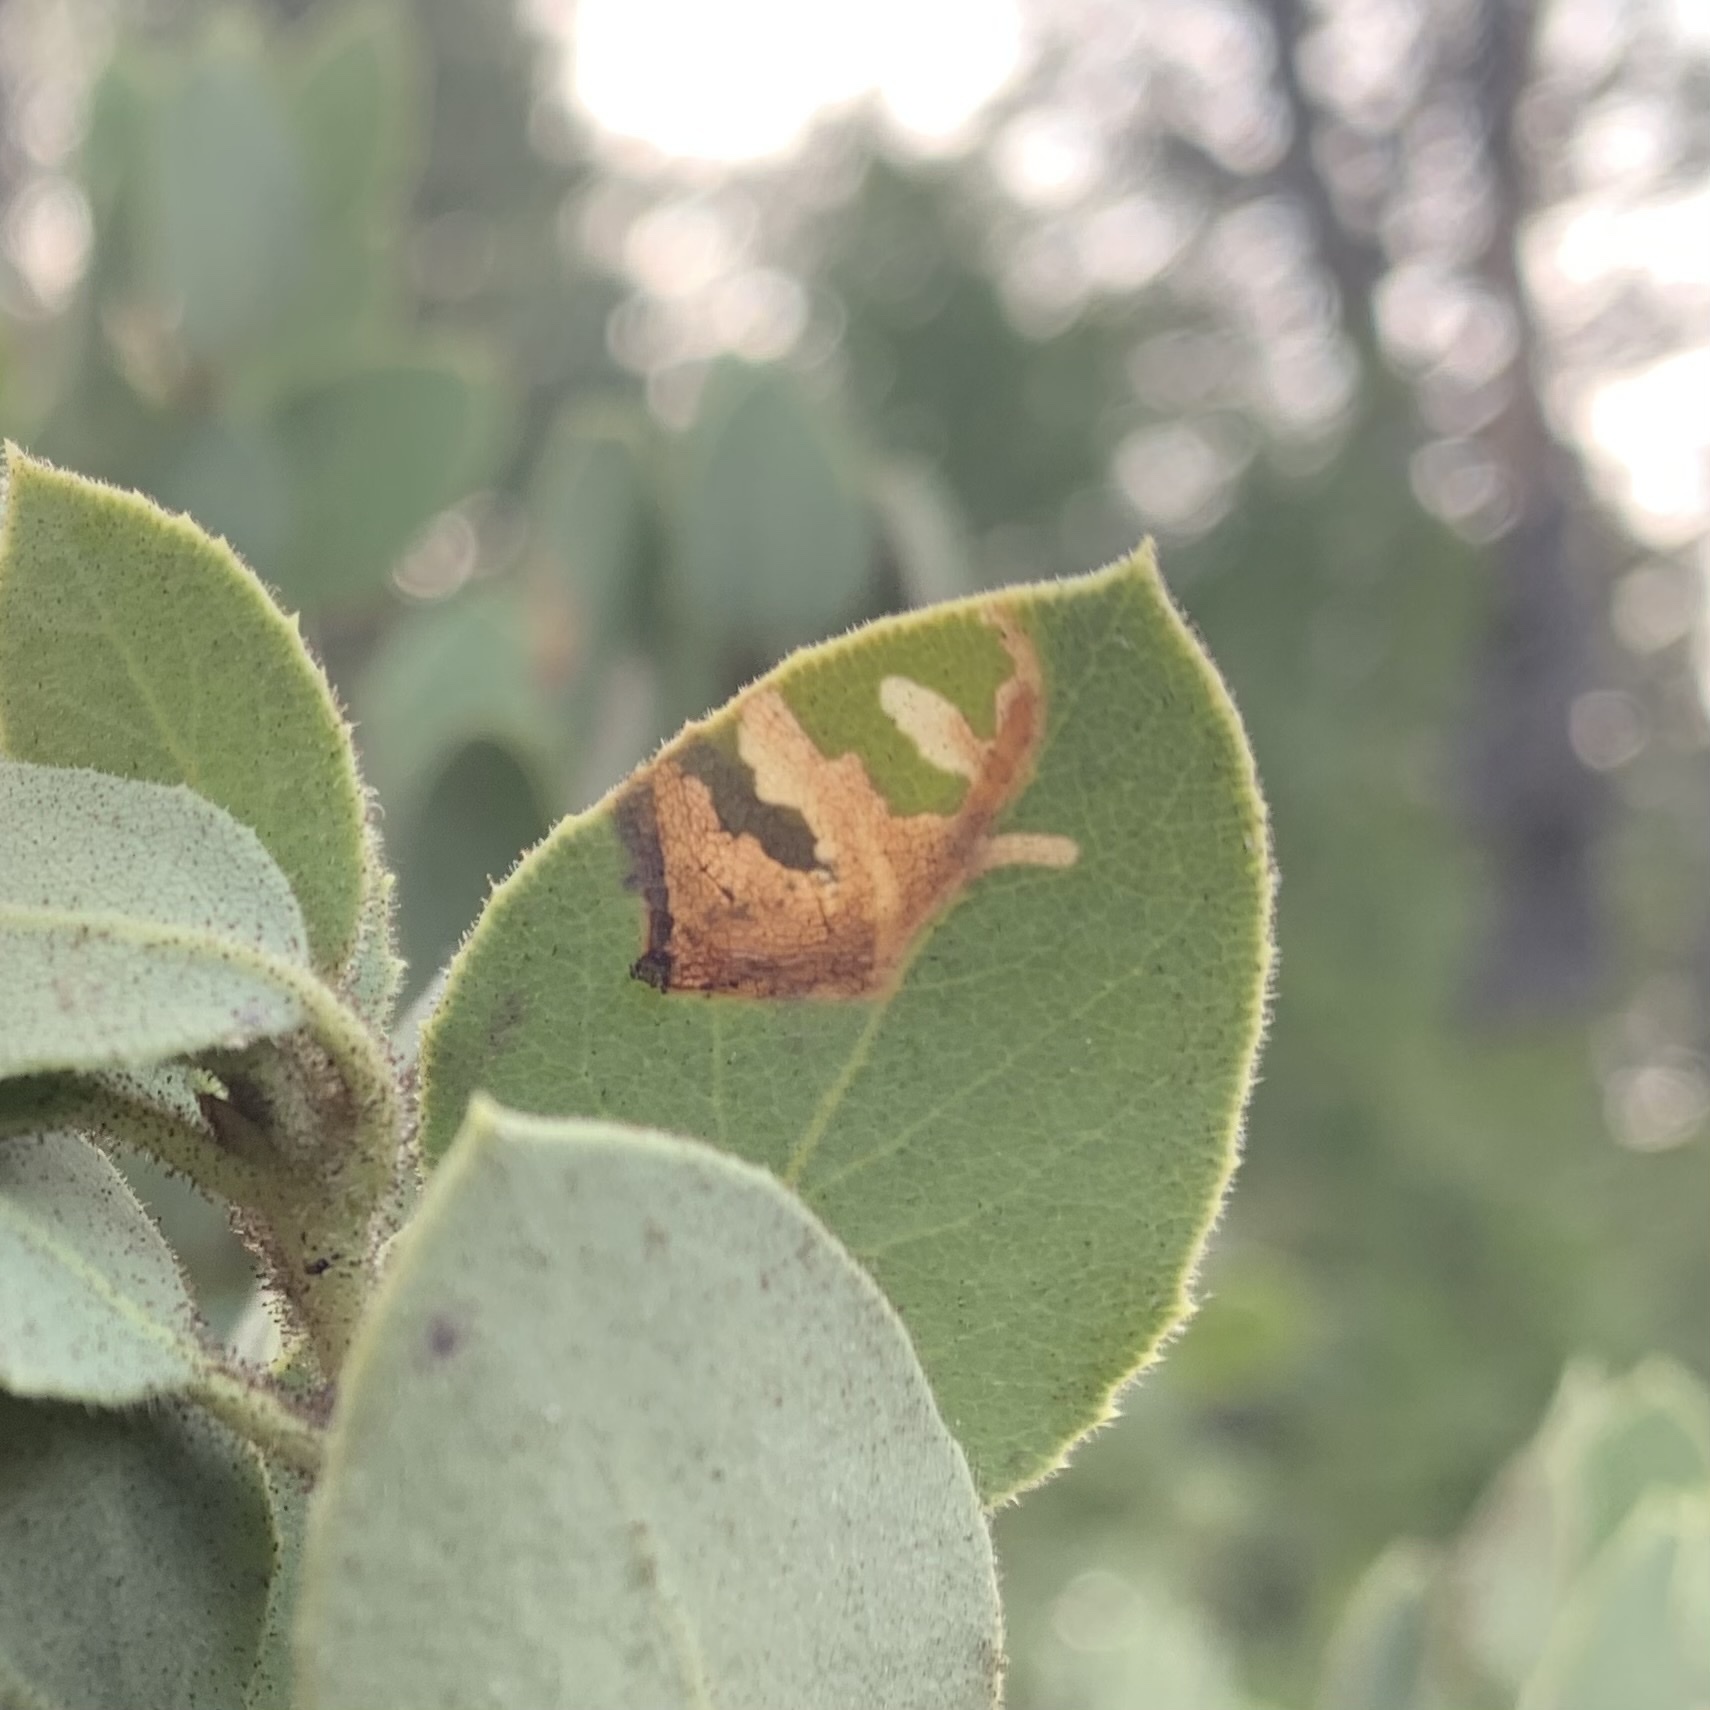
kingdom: Animalia
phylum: Arthropoda
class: Insecta
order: Lepidoptera
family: Tortricidae
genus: Epinotia
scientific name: Epinotia nigralbana
